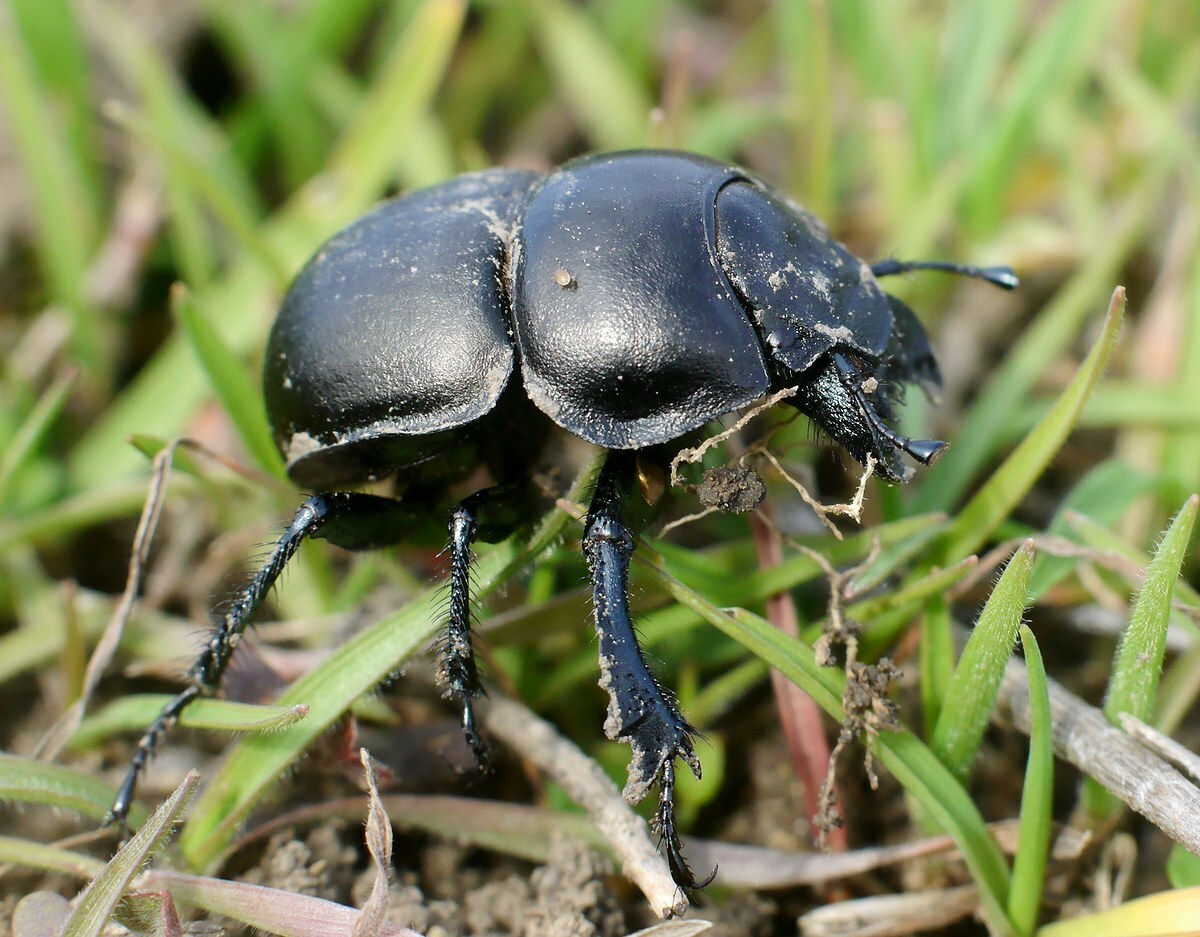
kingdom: Animalia
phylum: Arthropoda
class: Insecta
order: Coleoptera
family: Geotrupidae
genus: Lethrus
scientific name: Lethrus apterus
